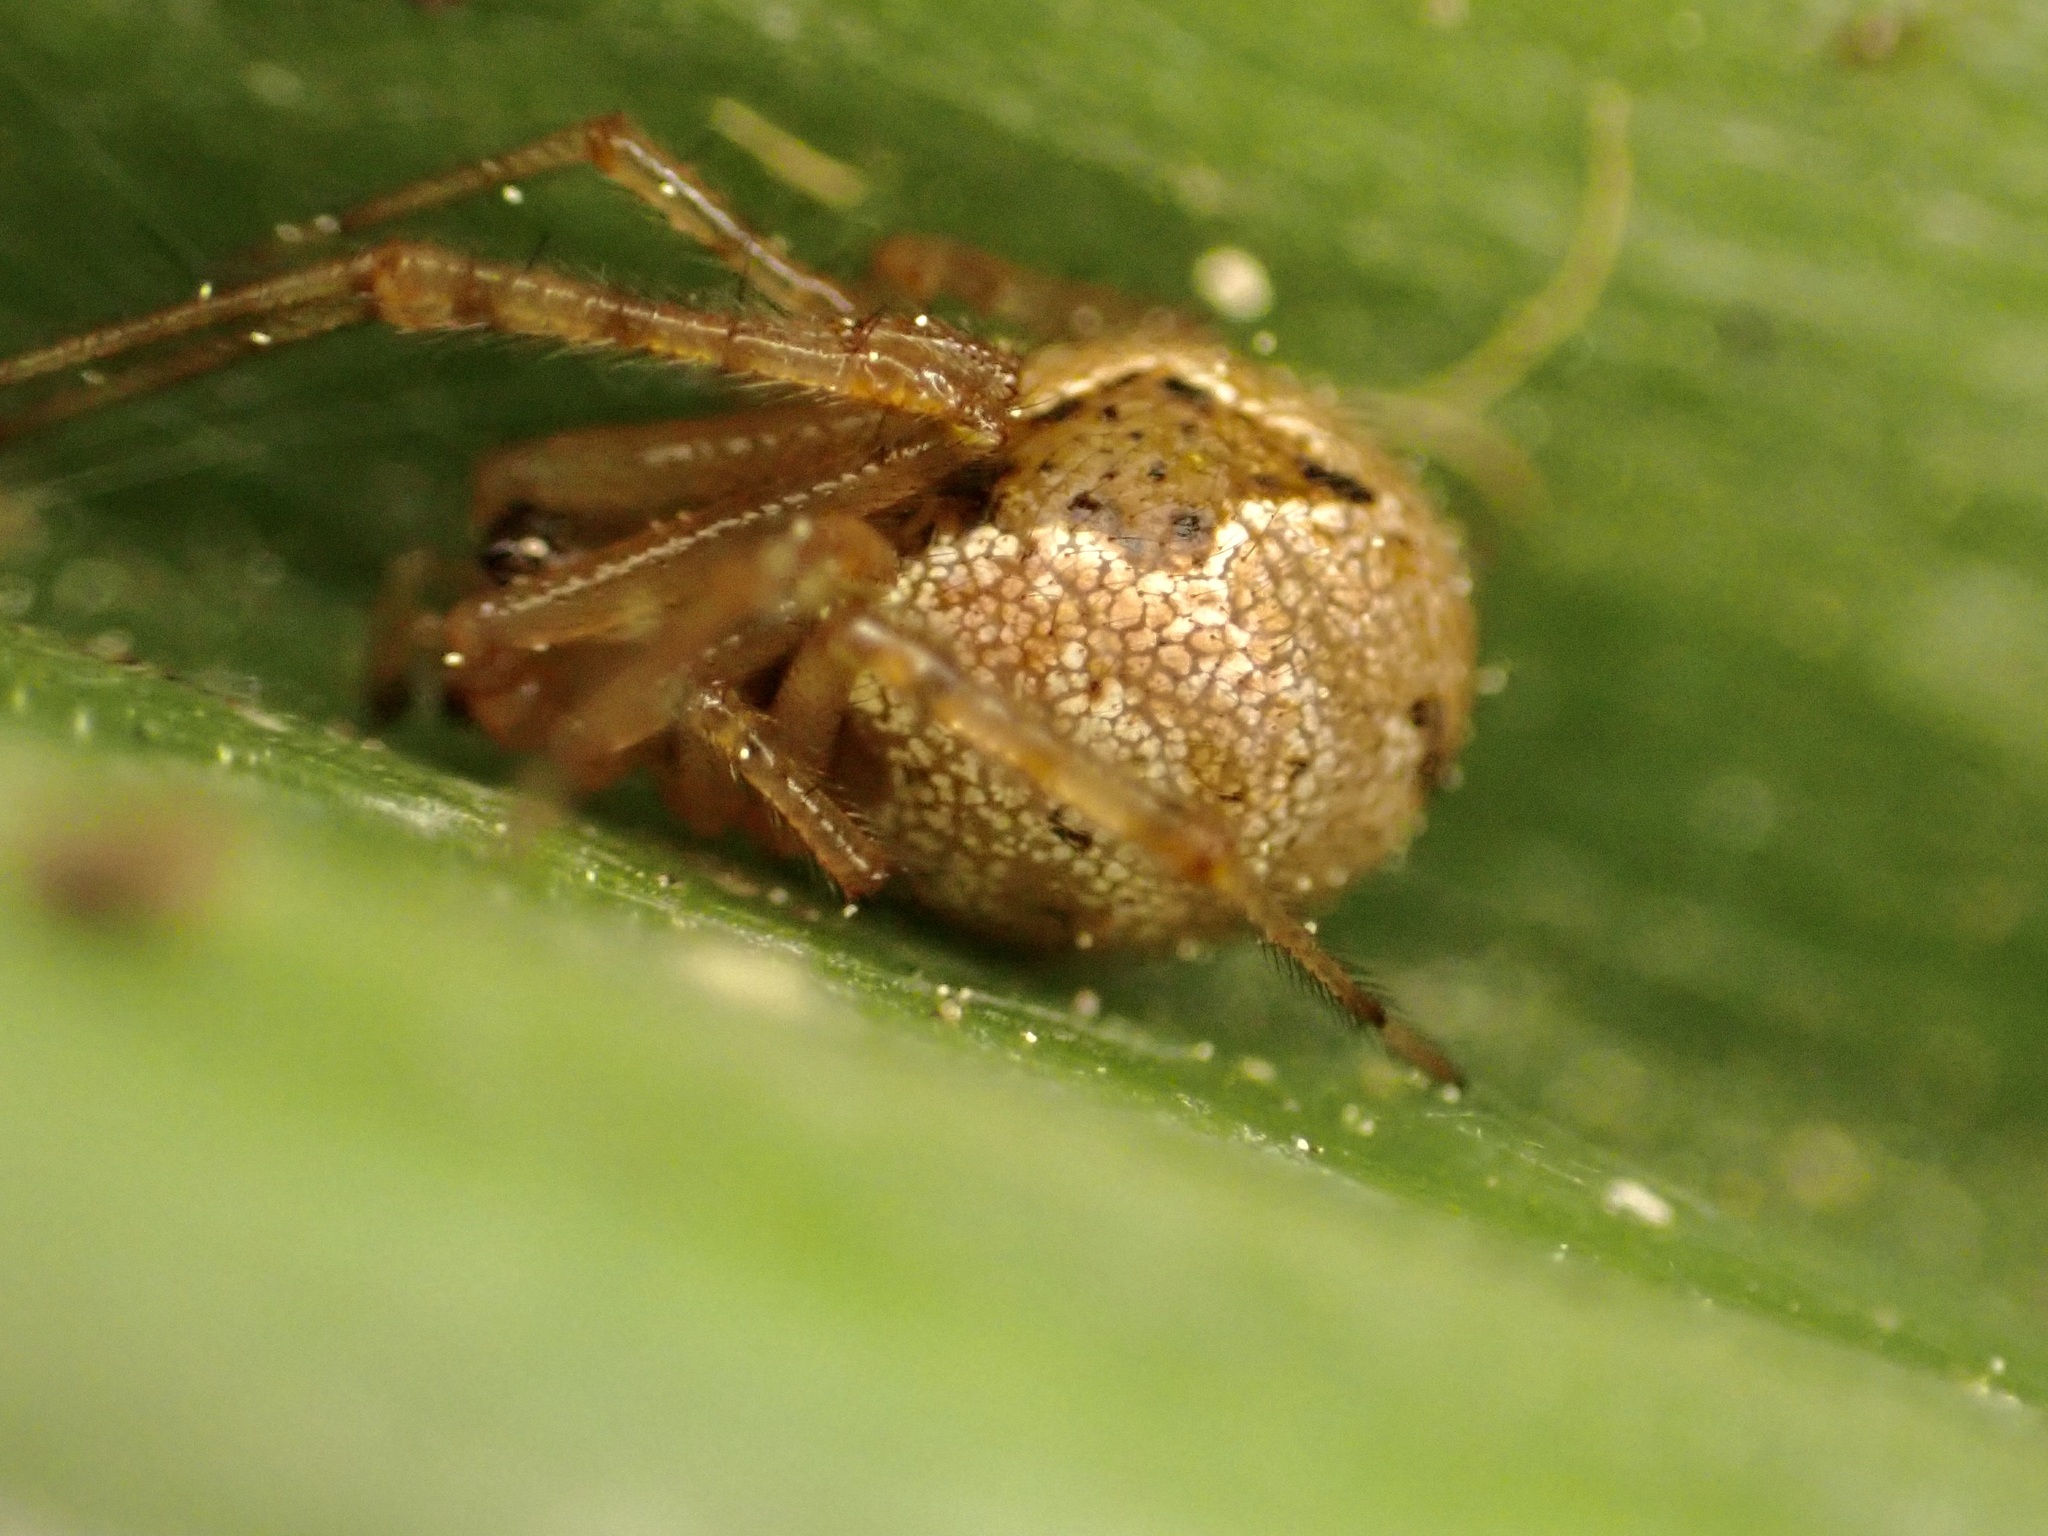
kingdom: Animalia
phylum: Arthropoda
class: Arachnida
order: Araneae
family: Theridiidae
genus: Cryptachaea
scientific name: Cryptachaea veruculata
